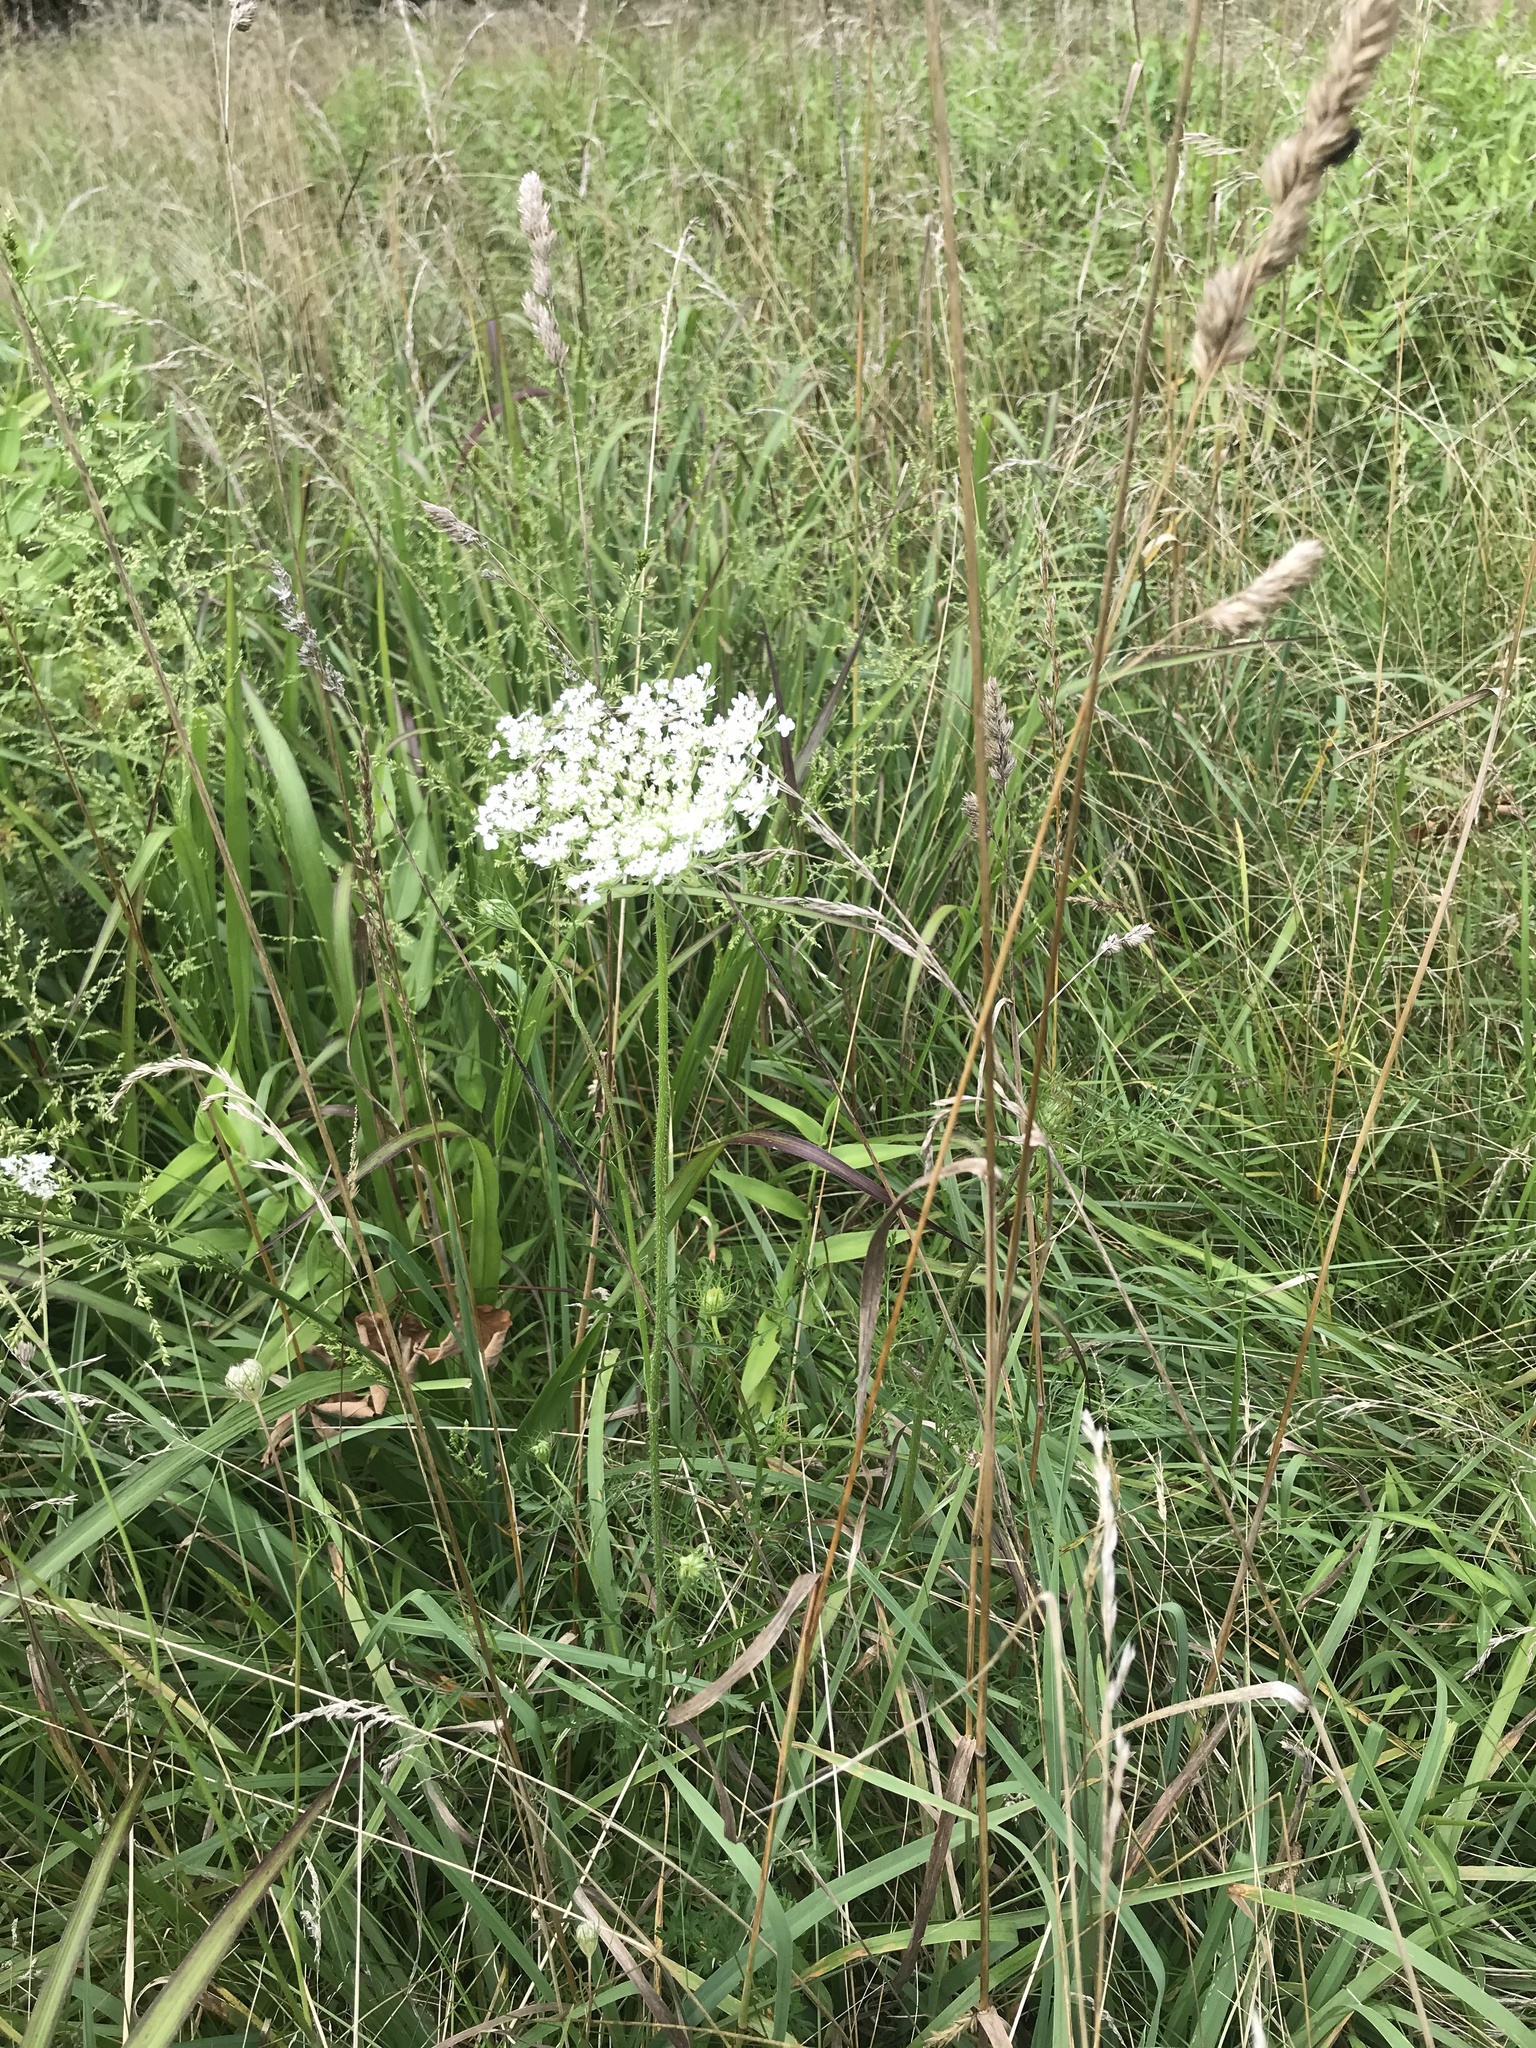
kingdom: Plantae
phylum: Tracheophyta
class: Magnoliopsida
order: Apiales
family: Apiaceae
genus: Daucus
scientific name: Daucus carota
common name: Wild carrot
